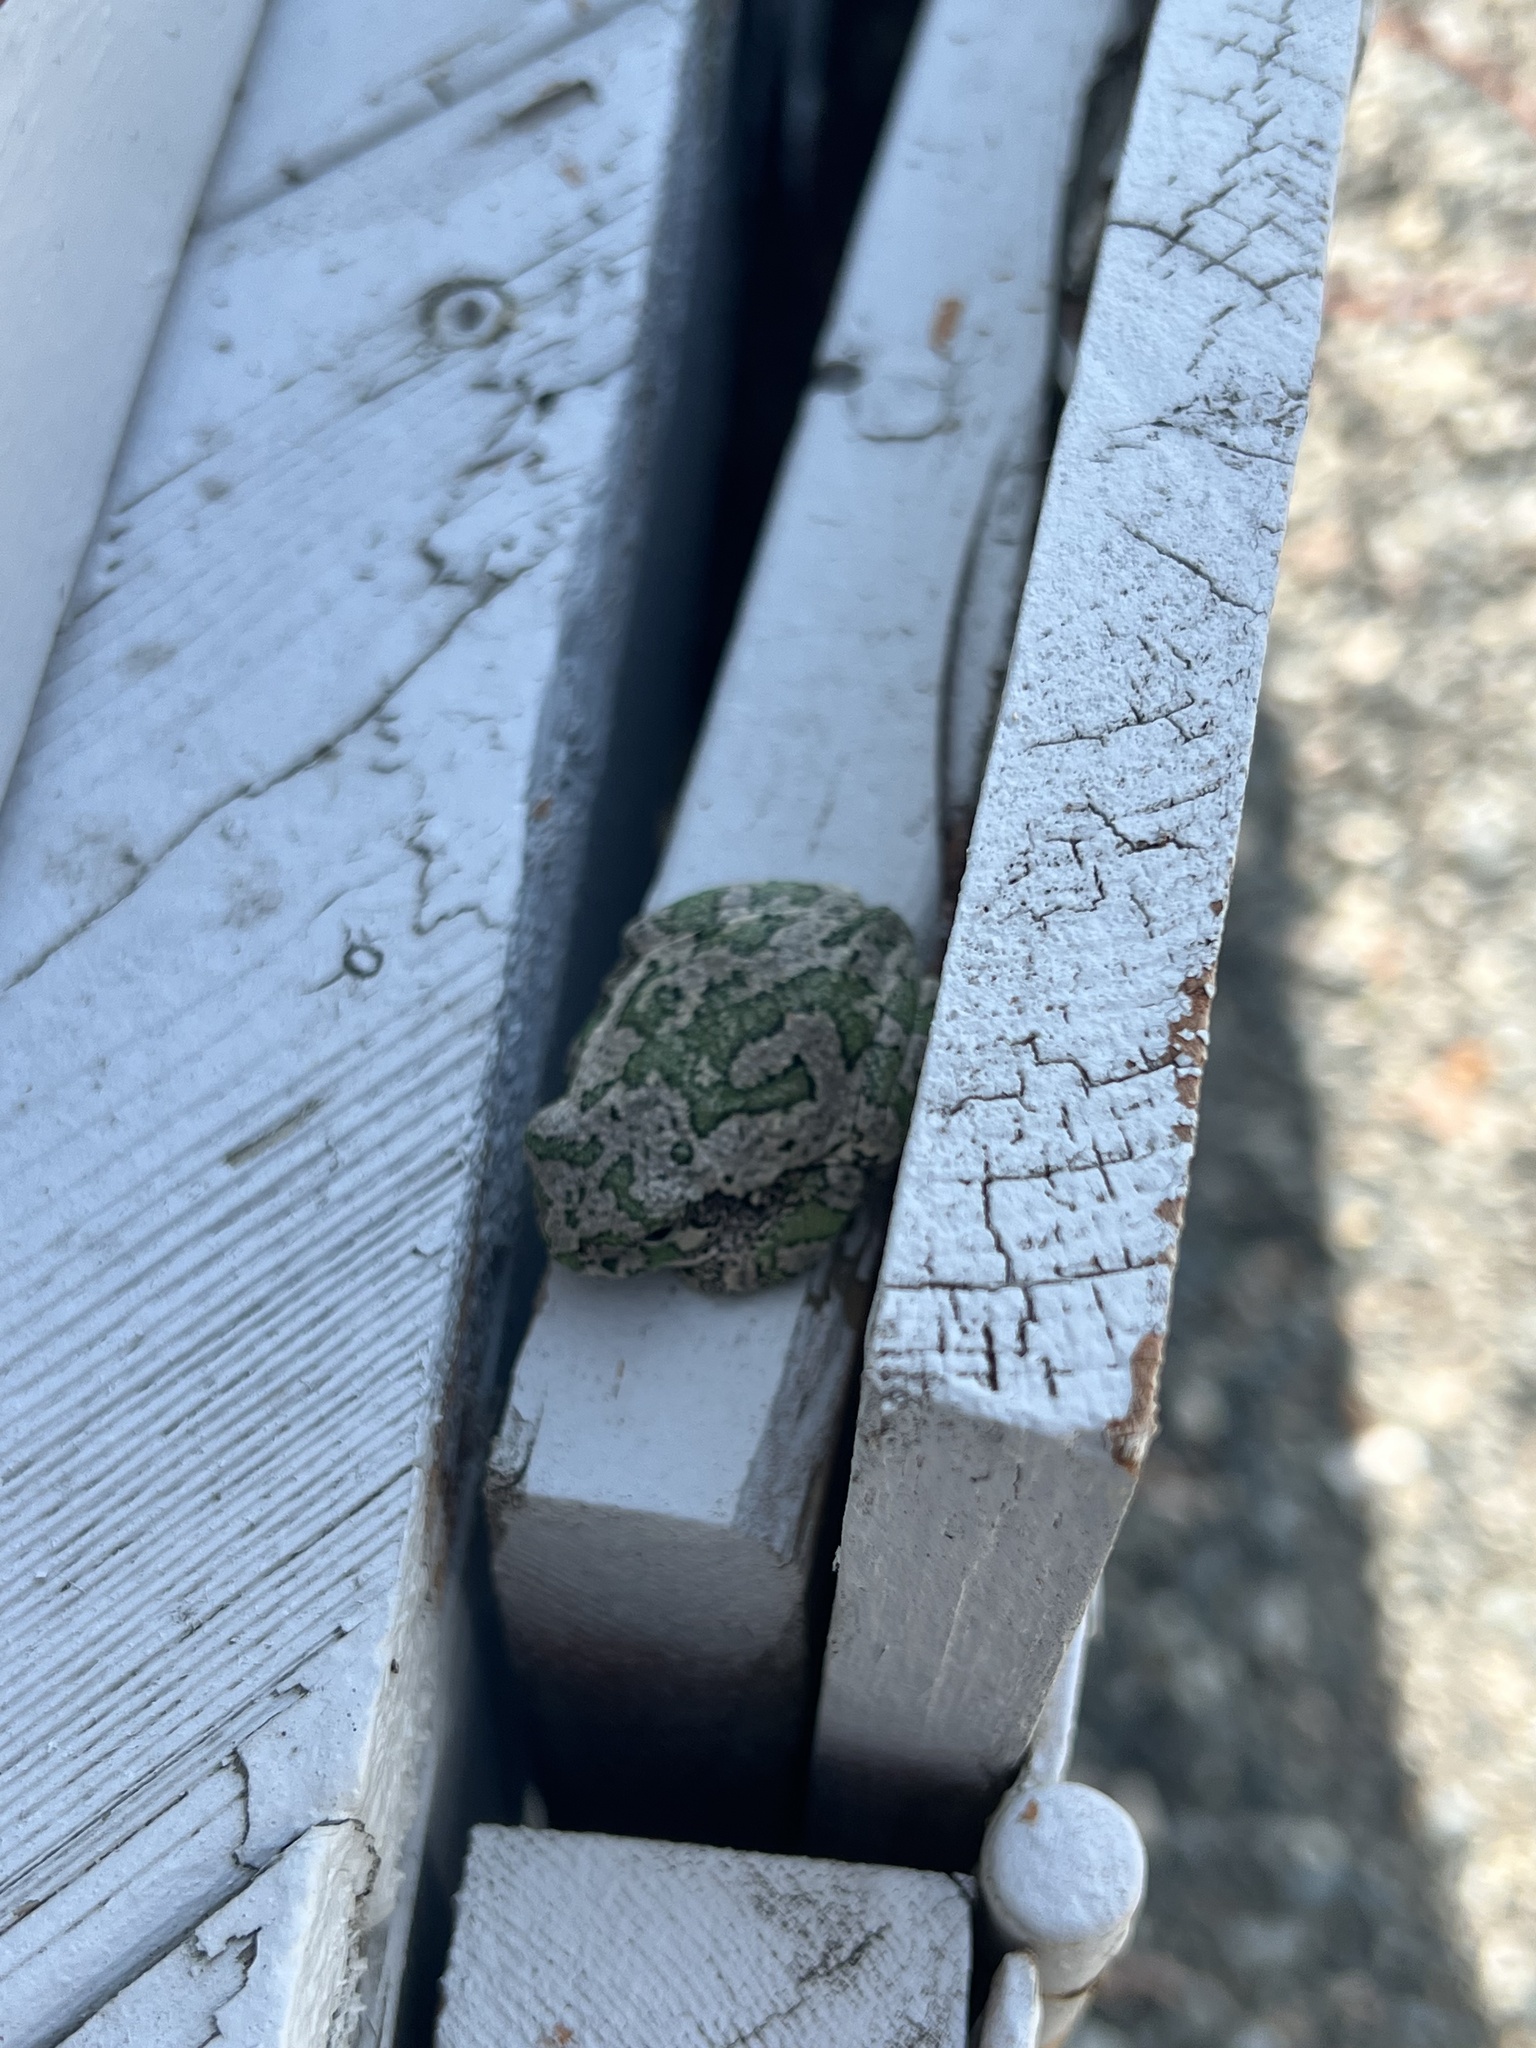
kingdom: Animalia
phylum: Chordata
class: Amphibia
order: Anura
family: Hylidae
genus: Dryophytes
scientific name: Dryophytes versicolor
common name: Gray treefrog
